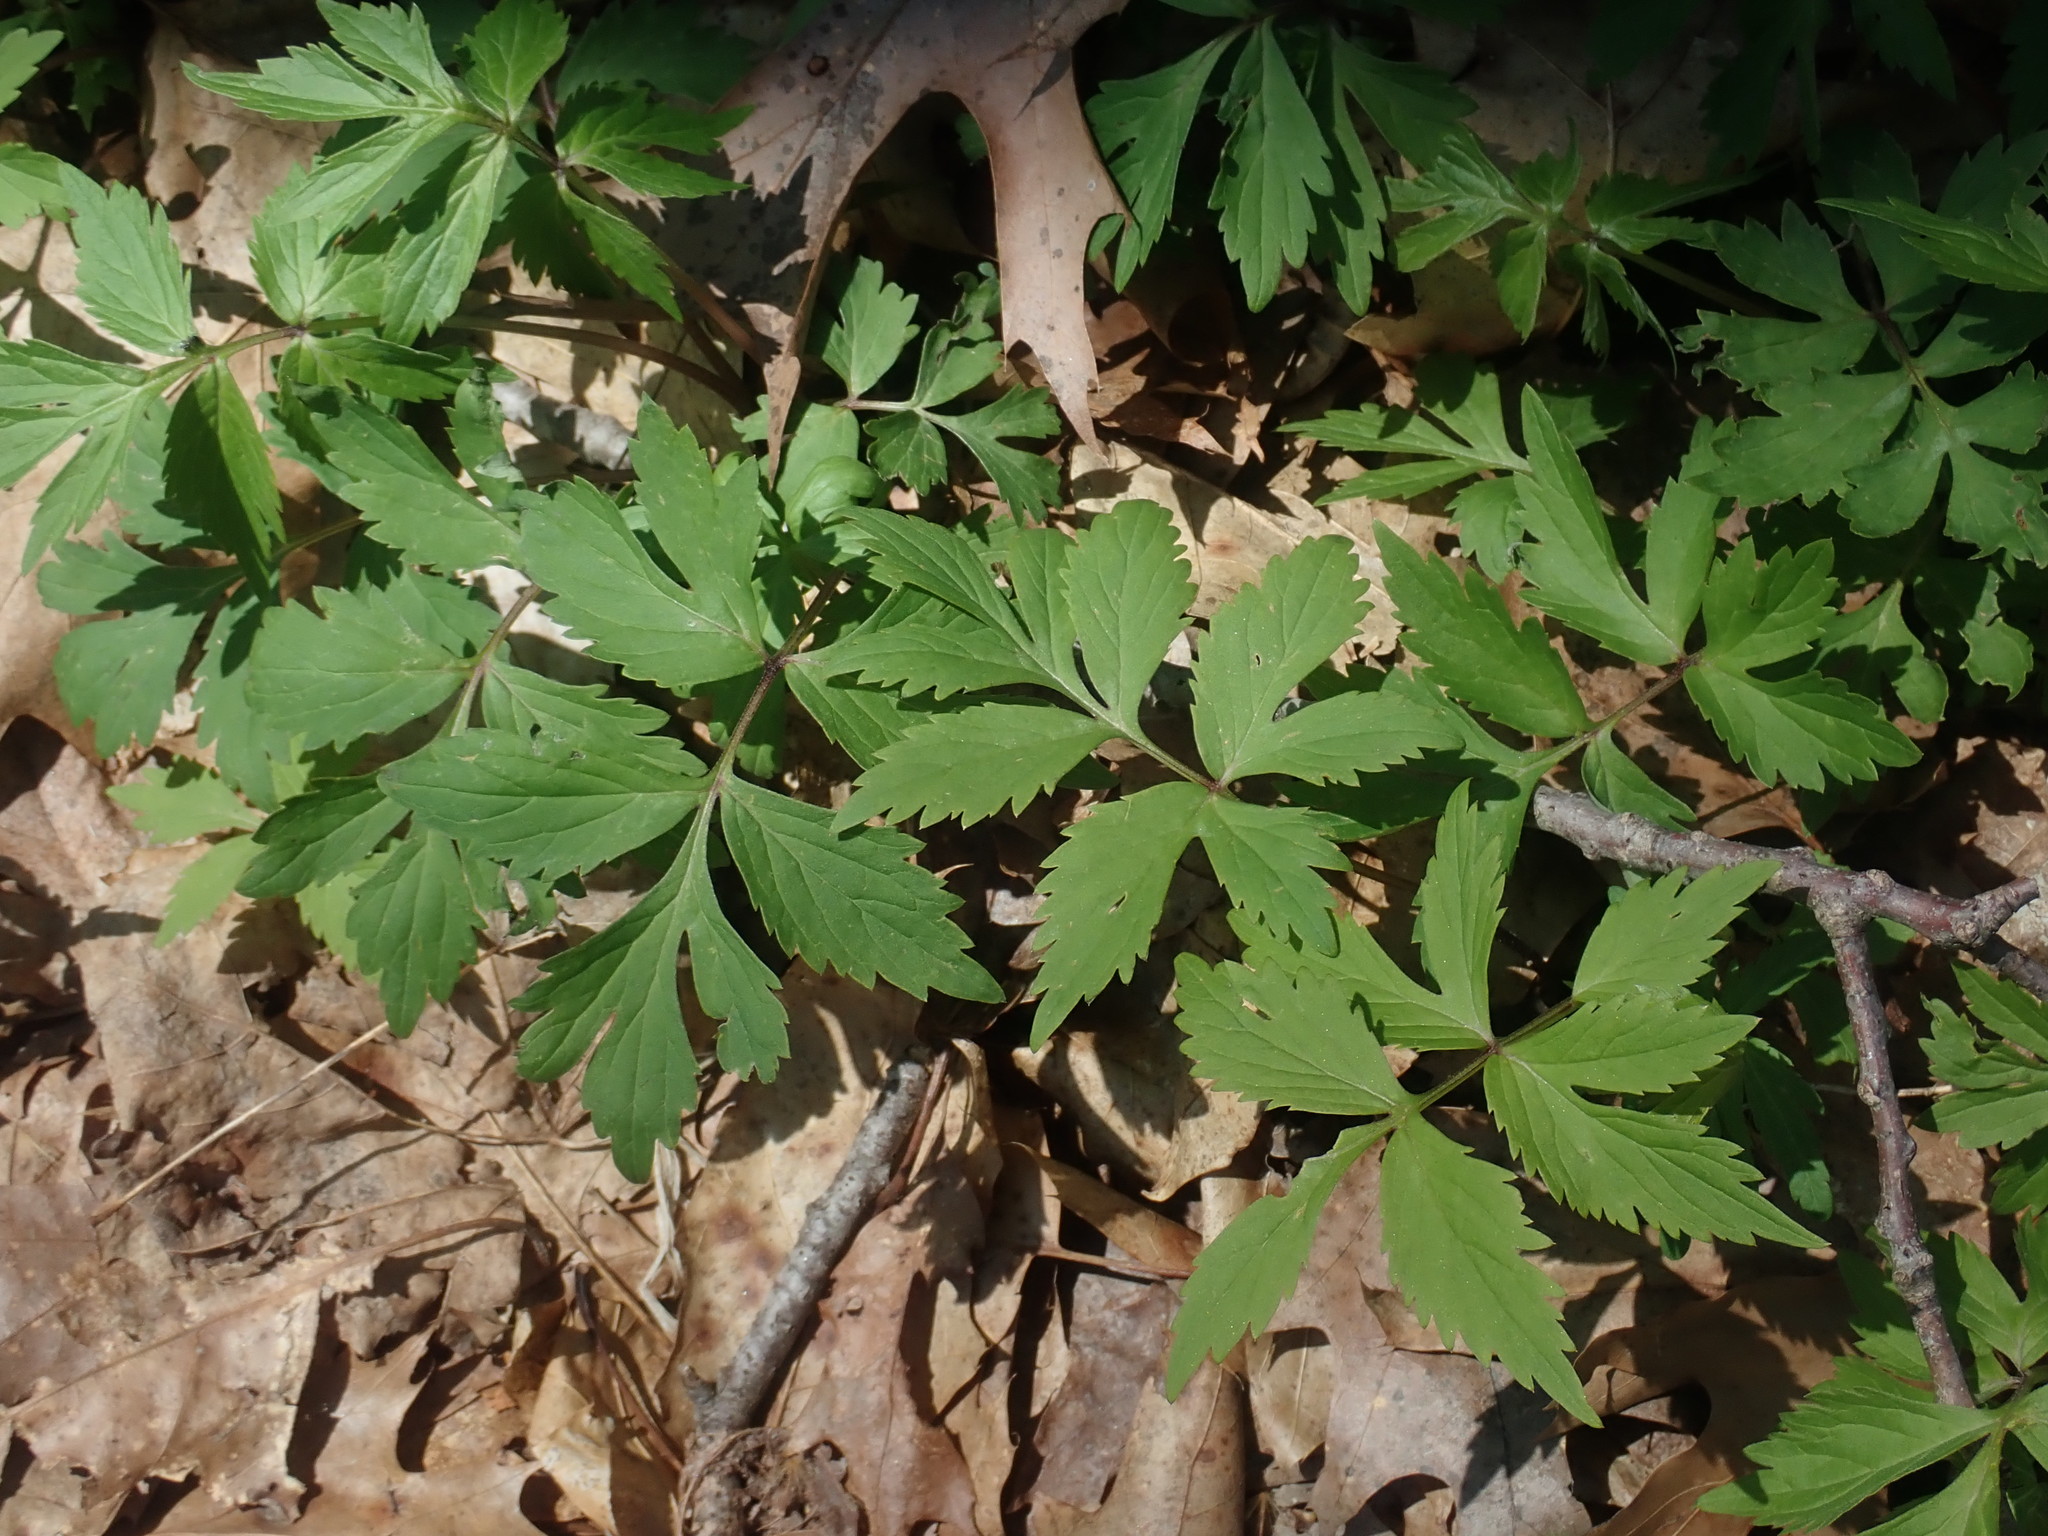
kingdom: Plantae
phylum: Tracheophyta
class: Magnoliopsida
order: Boraginales
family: Hydrophyllaceae
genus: Hydrophyllum
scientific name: Hydrophyllum virginianum
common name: Virginia waterleaf
